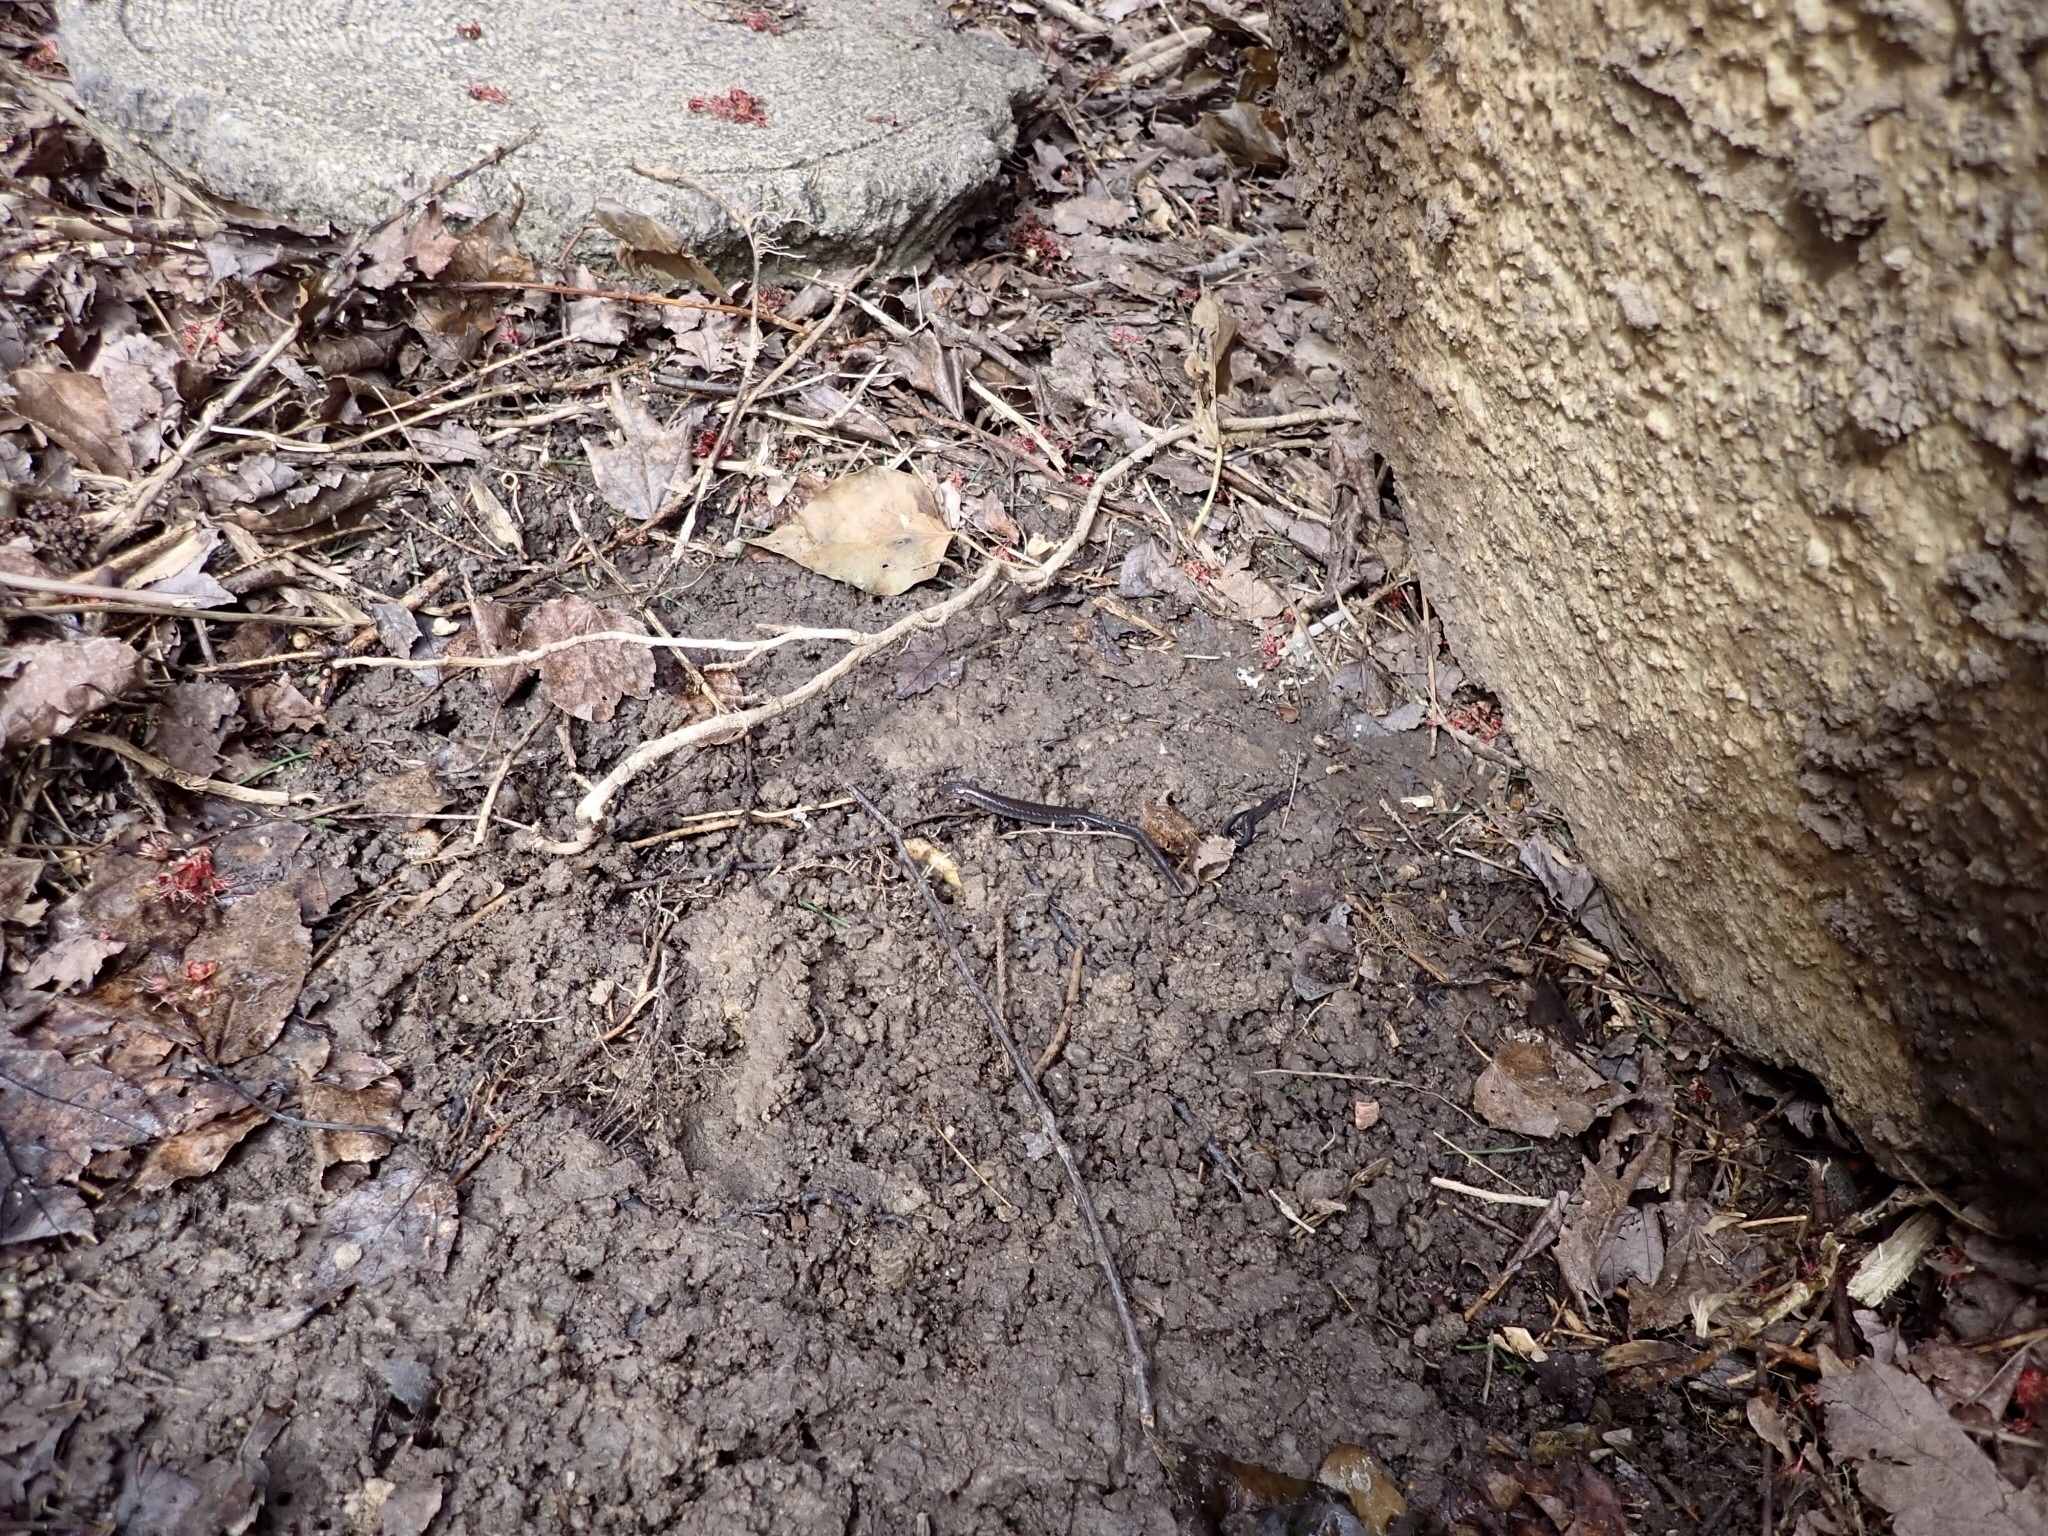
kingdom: Animalia
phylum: Chordata
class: Amphibia
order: Caudata
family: Plethodontidae
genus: Plethodon
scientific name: Plethodon cinereus
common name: Redback salamander
